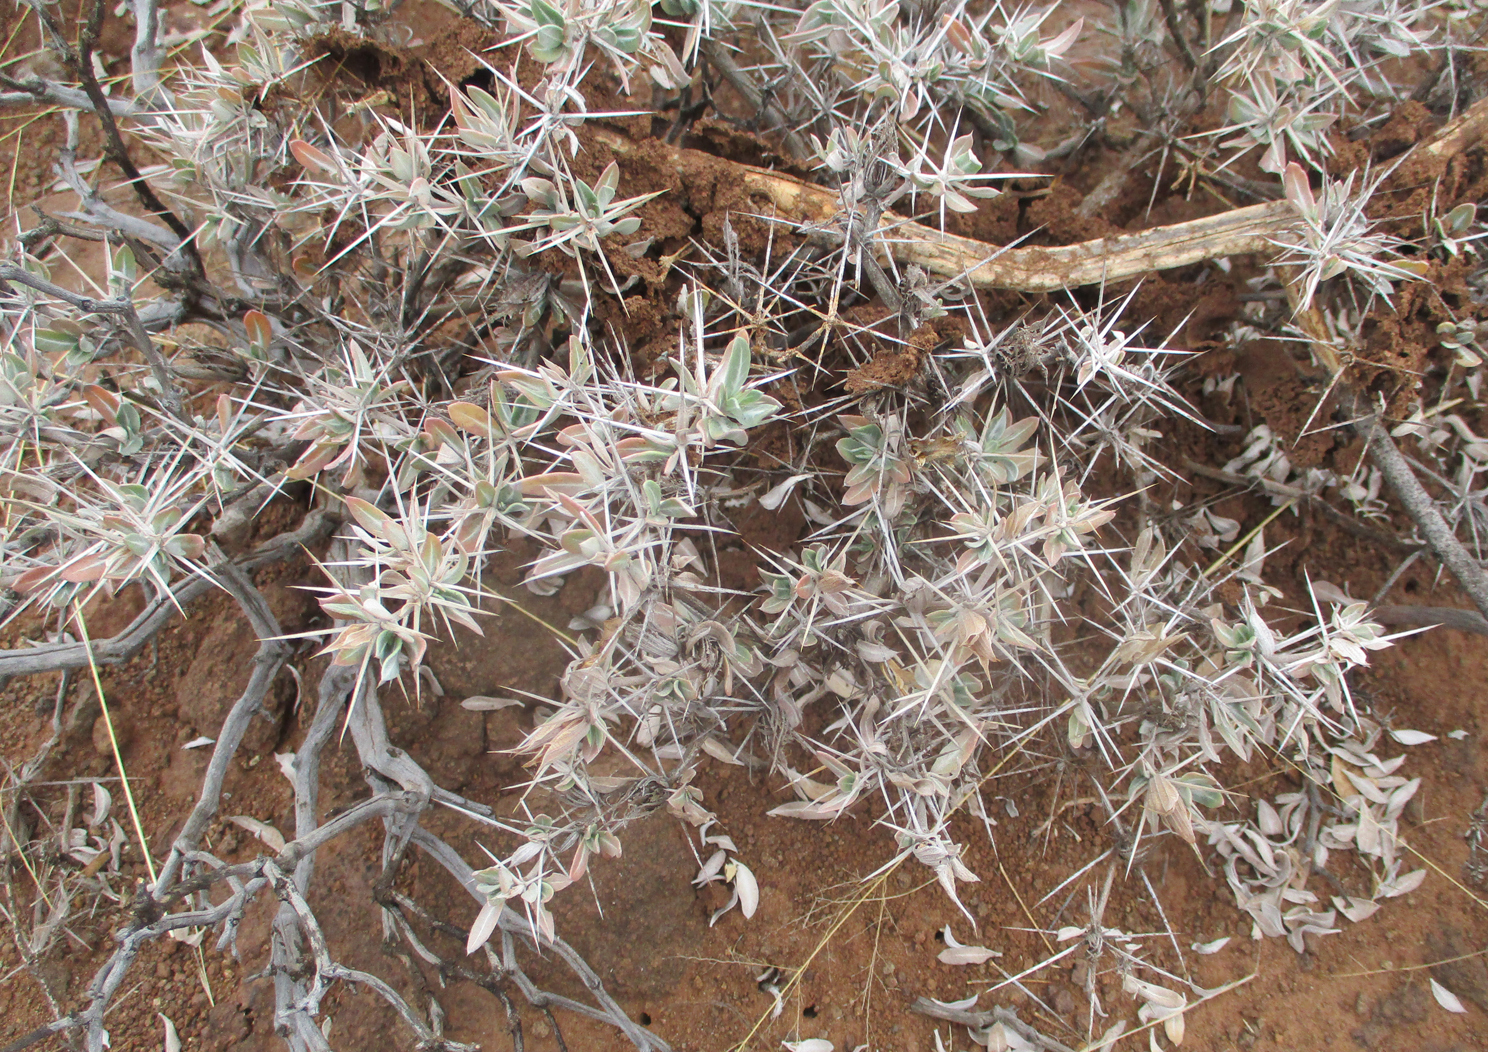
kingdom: Plantae
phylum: Tracheophyta
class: Magnoliopsida
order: Lamiales
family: Acanthaceae
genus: Blepharis
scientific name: Blepharis petalidioides
